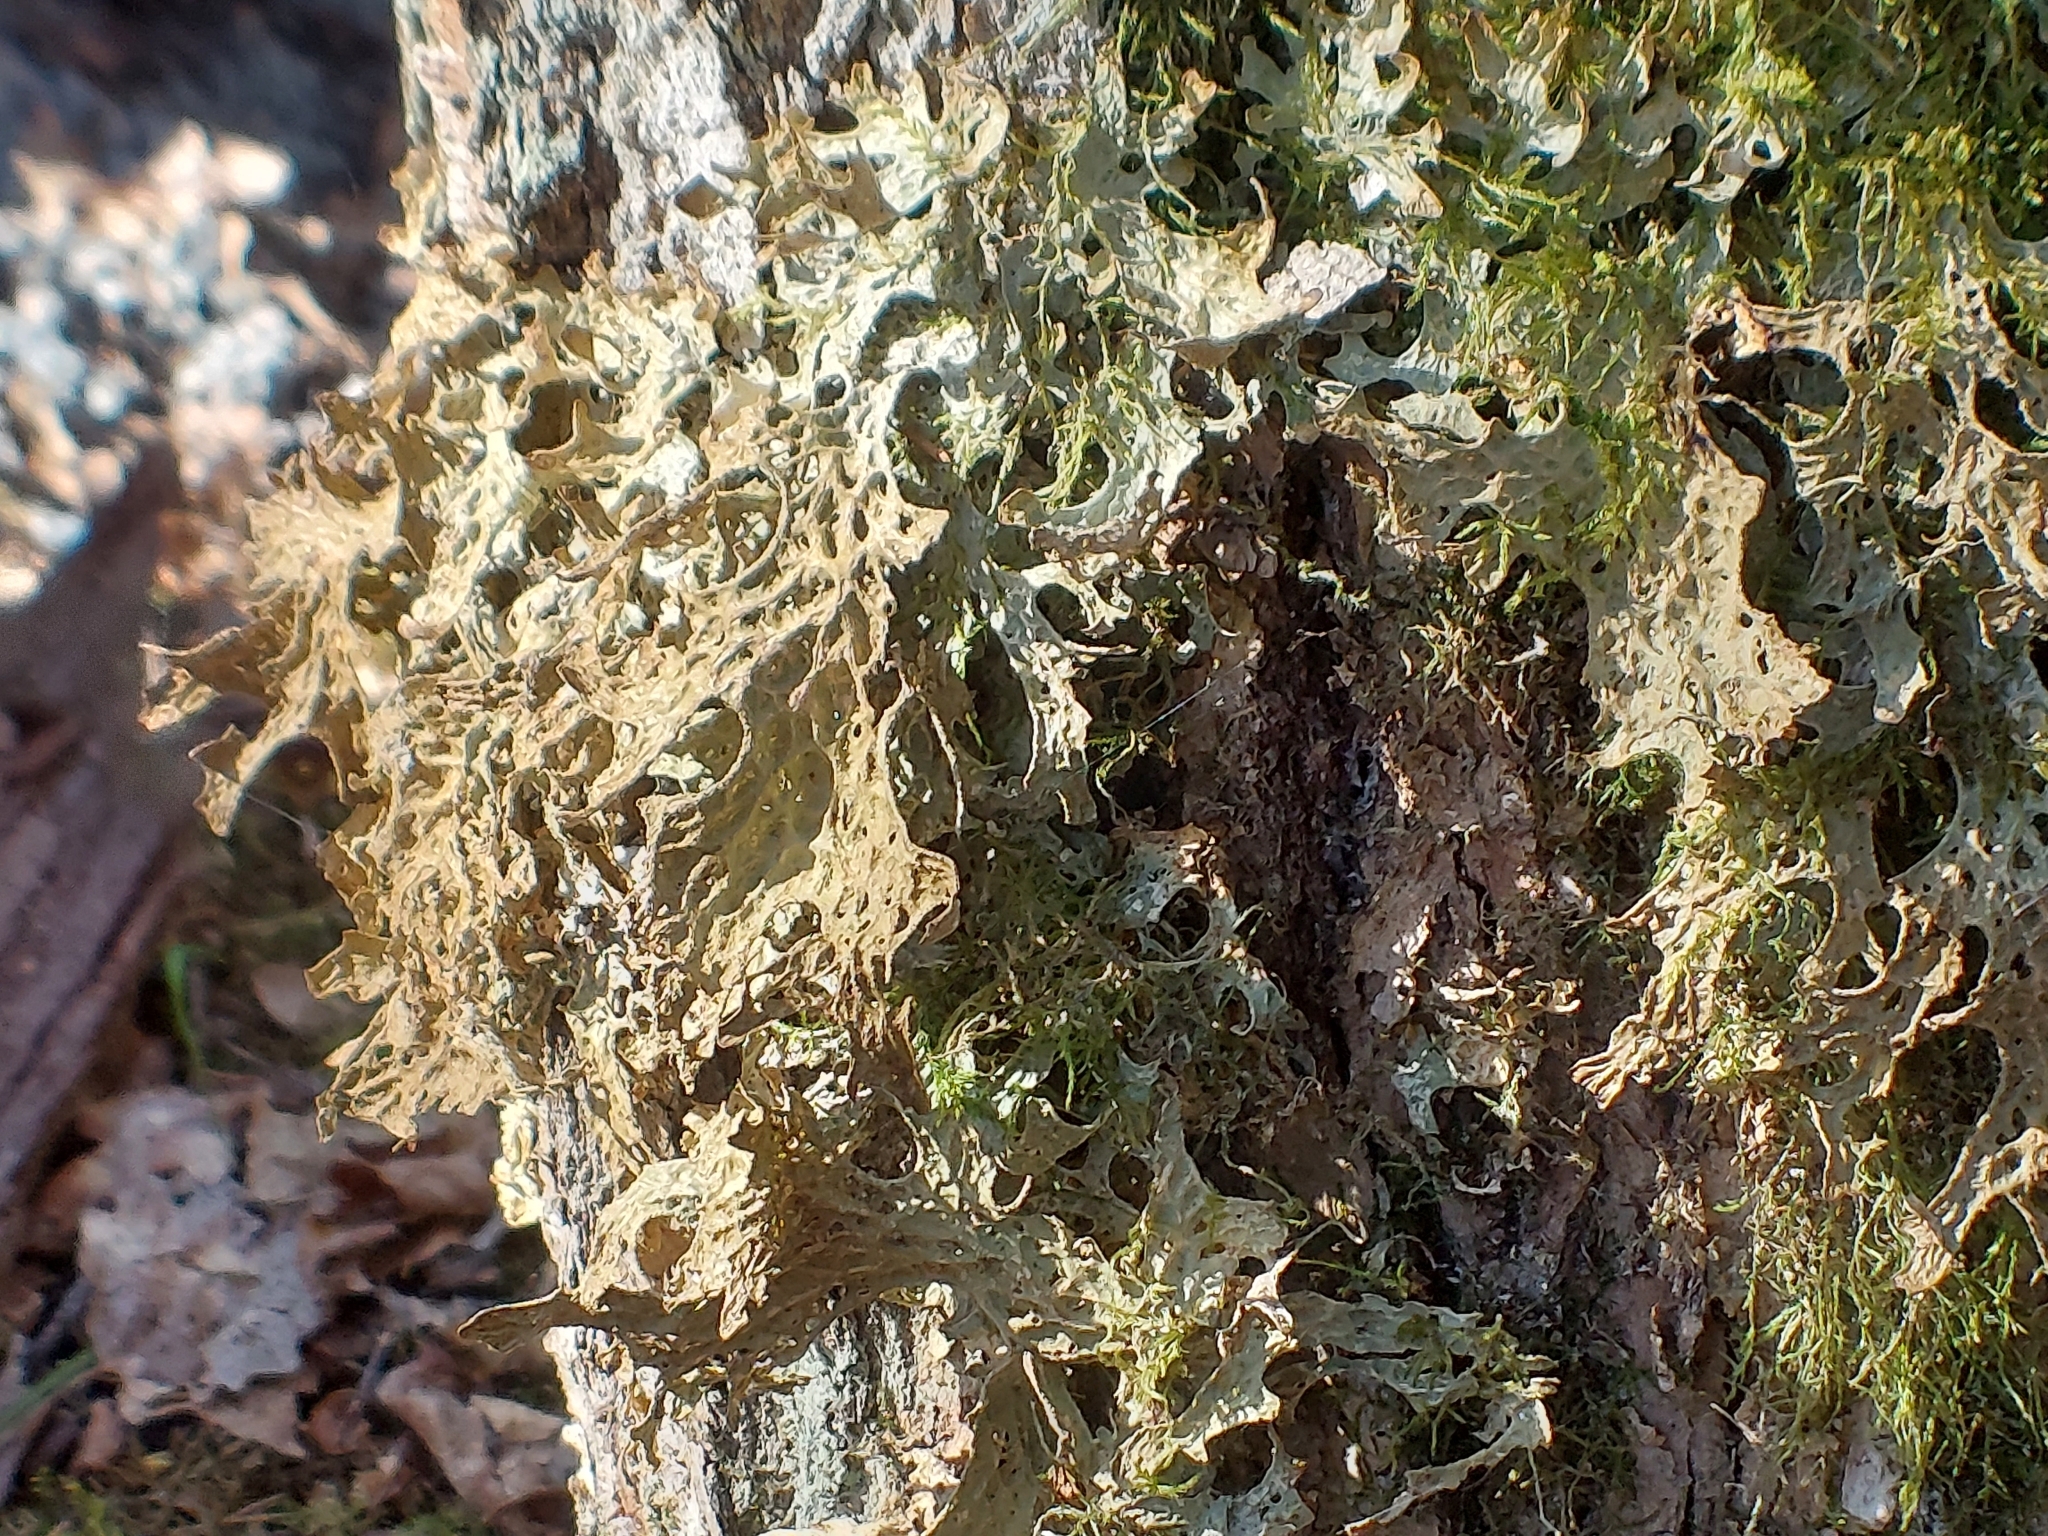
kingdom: Fungi
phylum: Ascomycota
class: Lecanoromycetes
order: Peltigerales
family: Lobariaceae
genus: Lobaria
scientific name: Lobaria pulmonaria
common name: Lungwort
